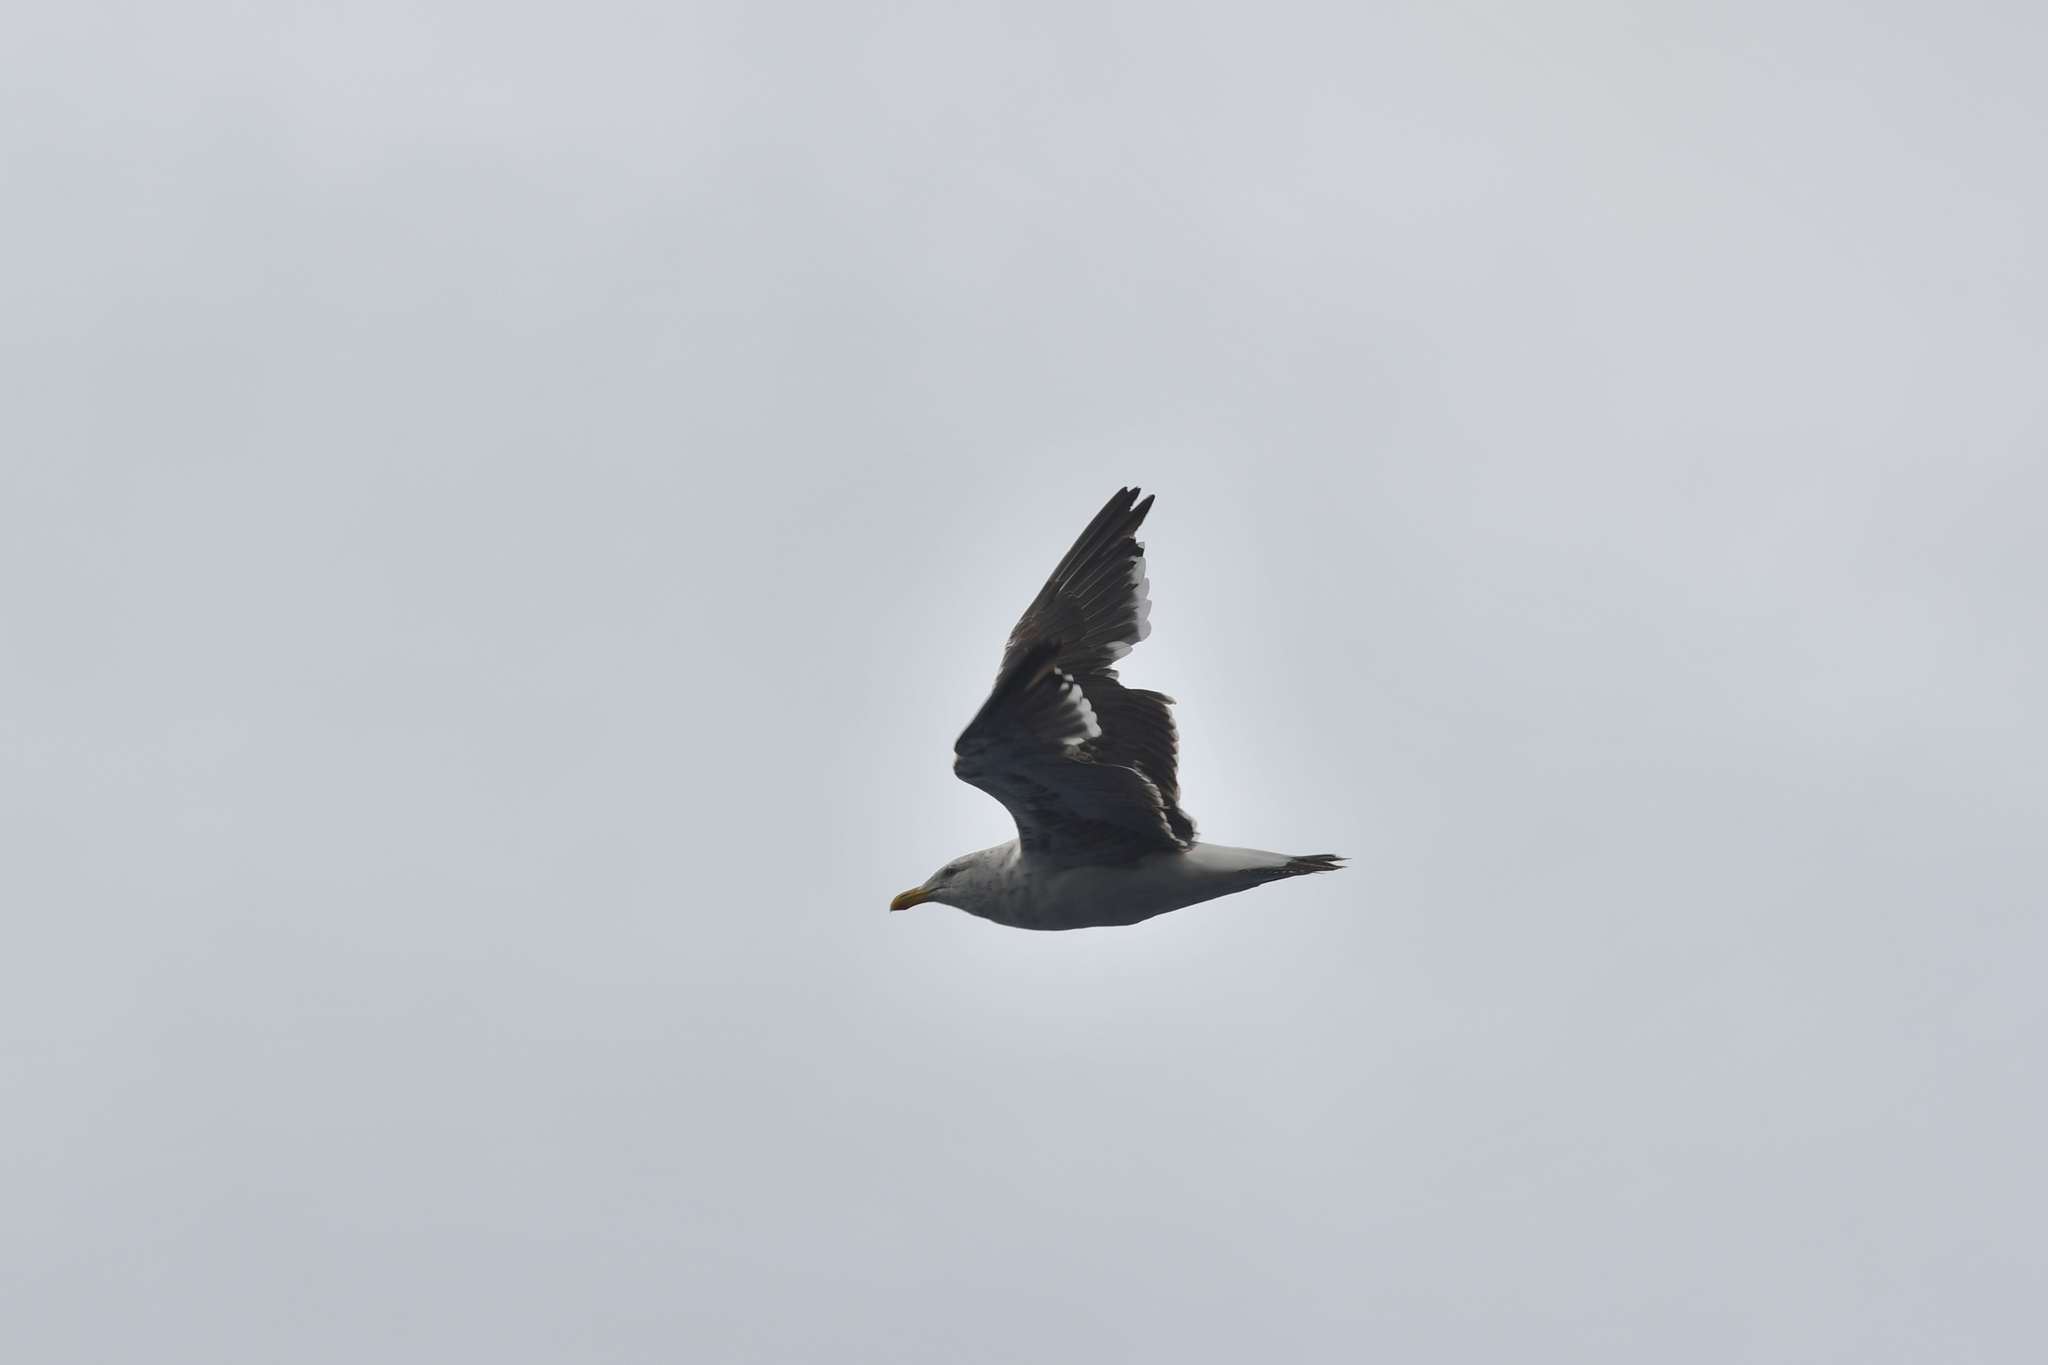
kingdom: Animalia
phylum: Chordata
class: Aves
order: Charadriiformes
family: Laridae
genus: Larus
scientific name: Larus dominicanus
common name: Kelp gull
